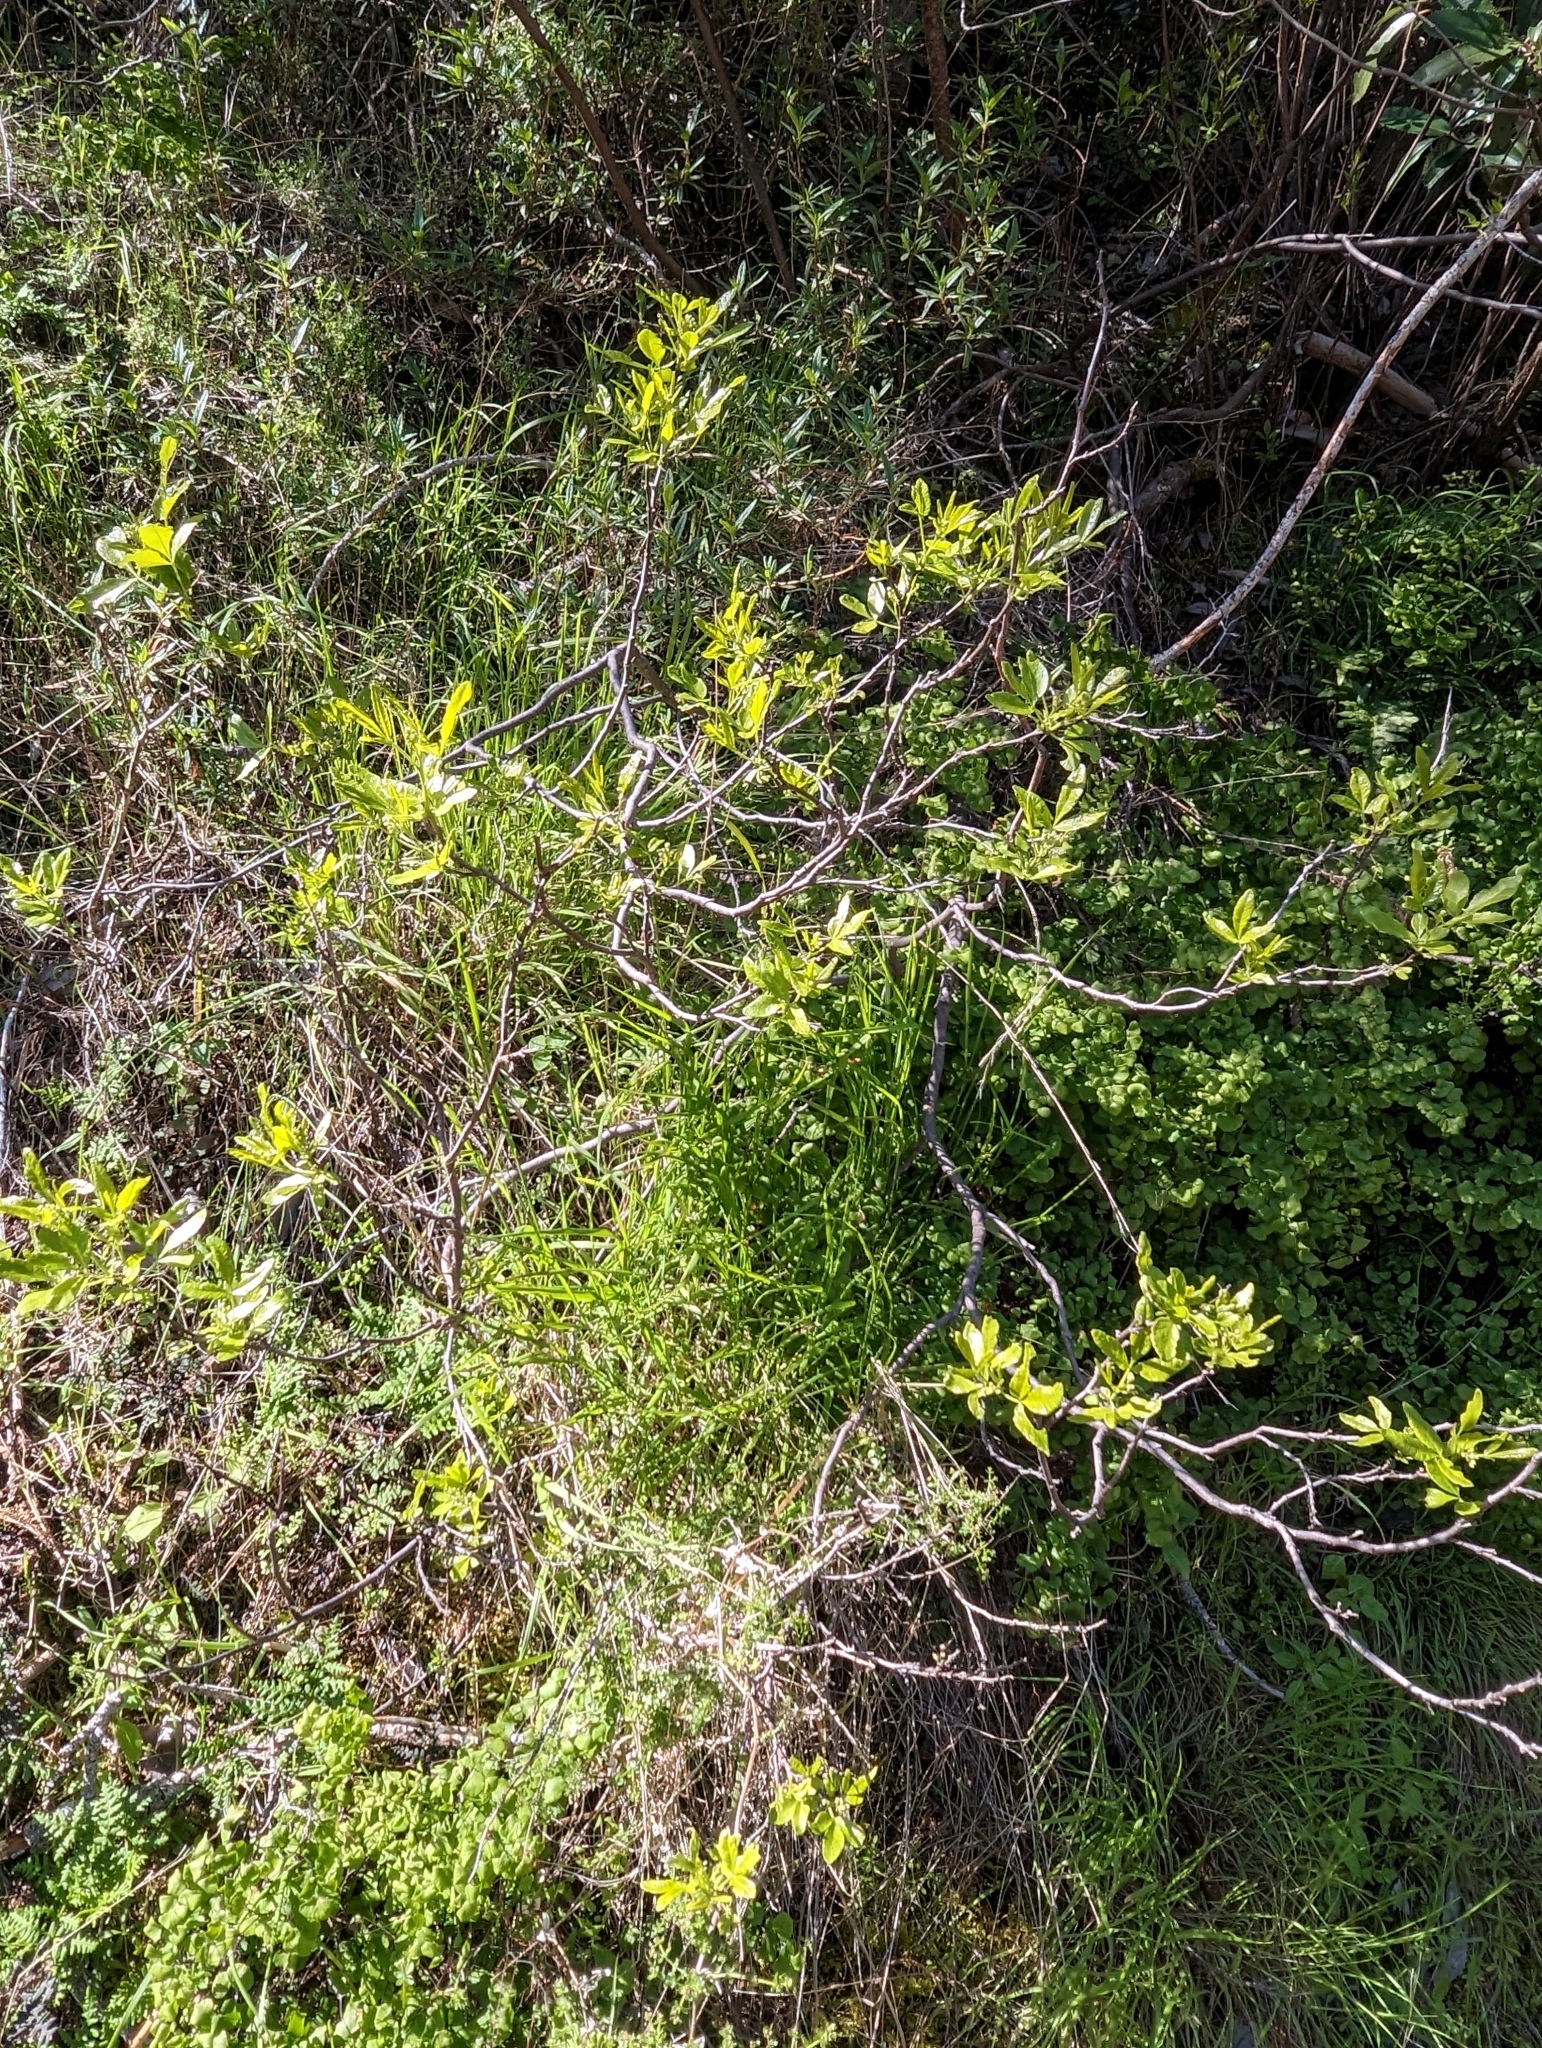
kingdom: Plantae
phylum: Tracheophyta
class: Magnoliopsida
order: Sapindales
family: Rutaceae
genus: Ptelea
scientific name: Ptelea crenulata
